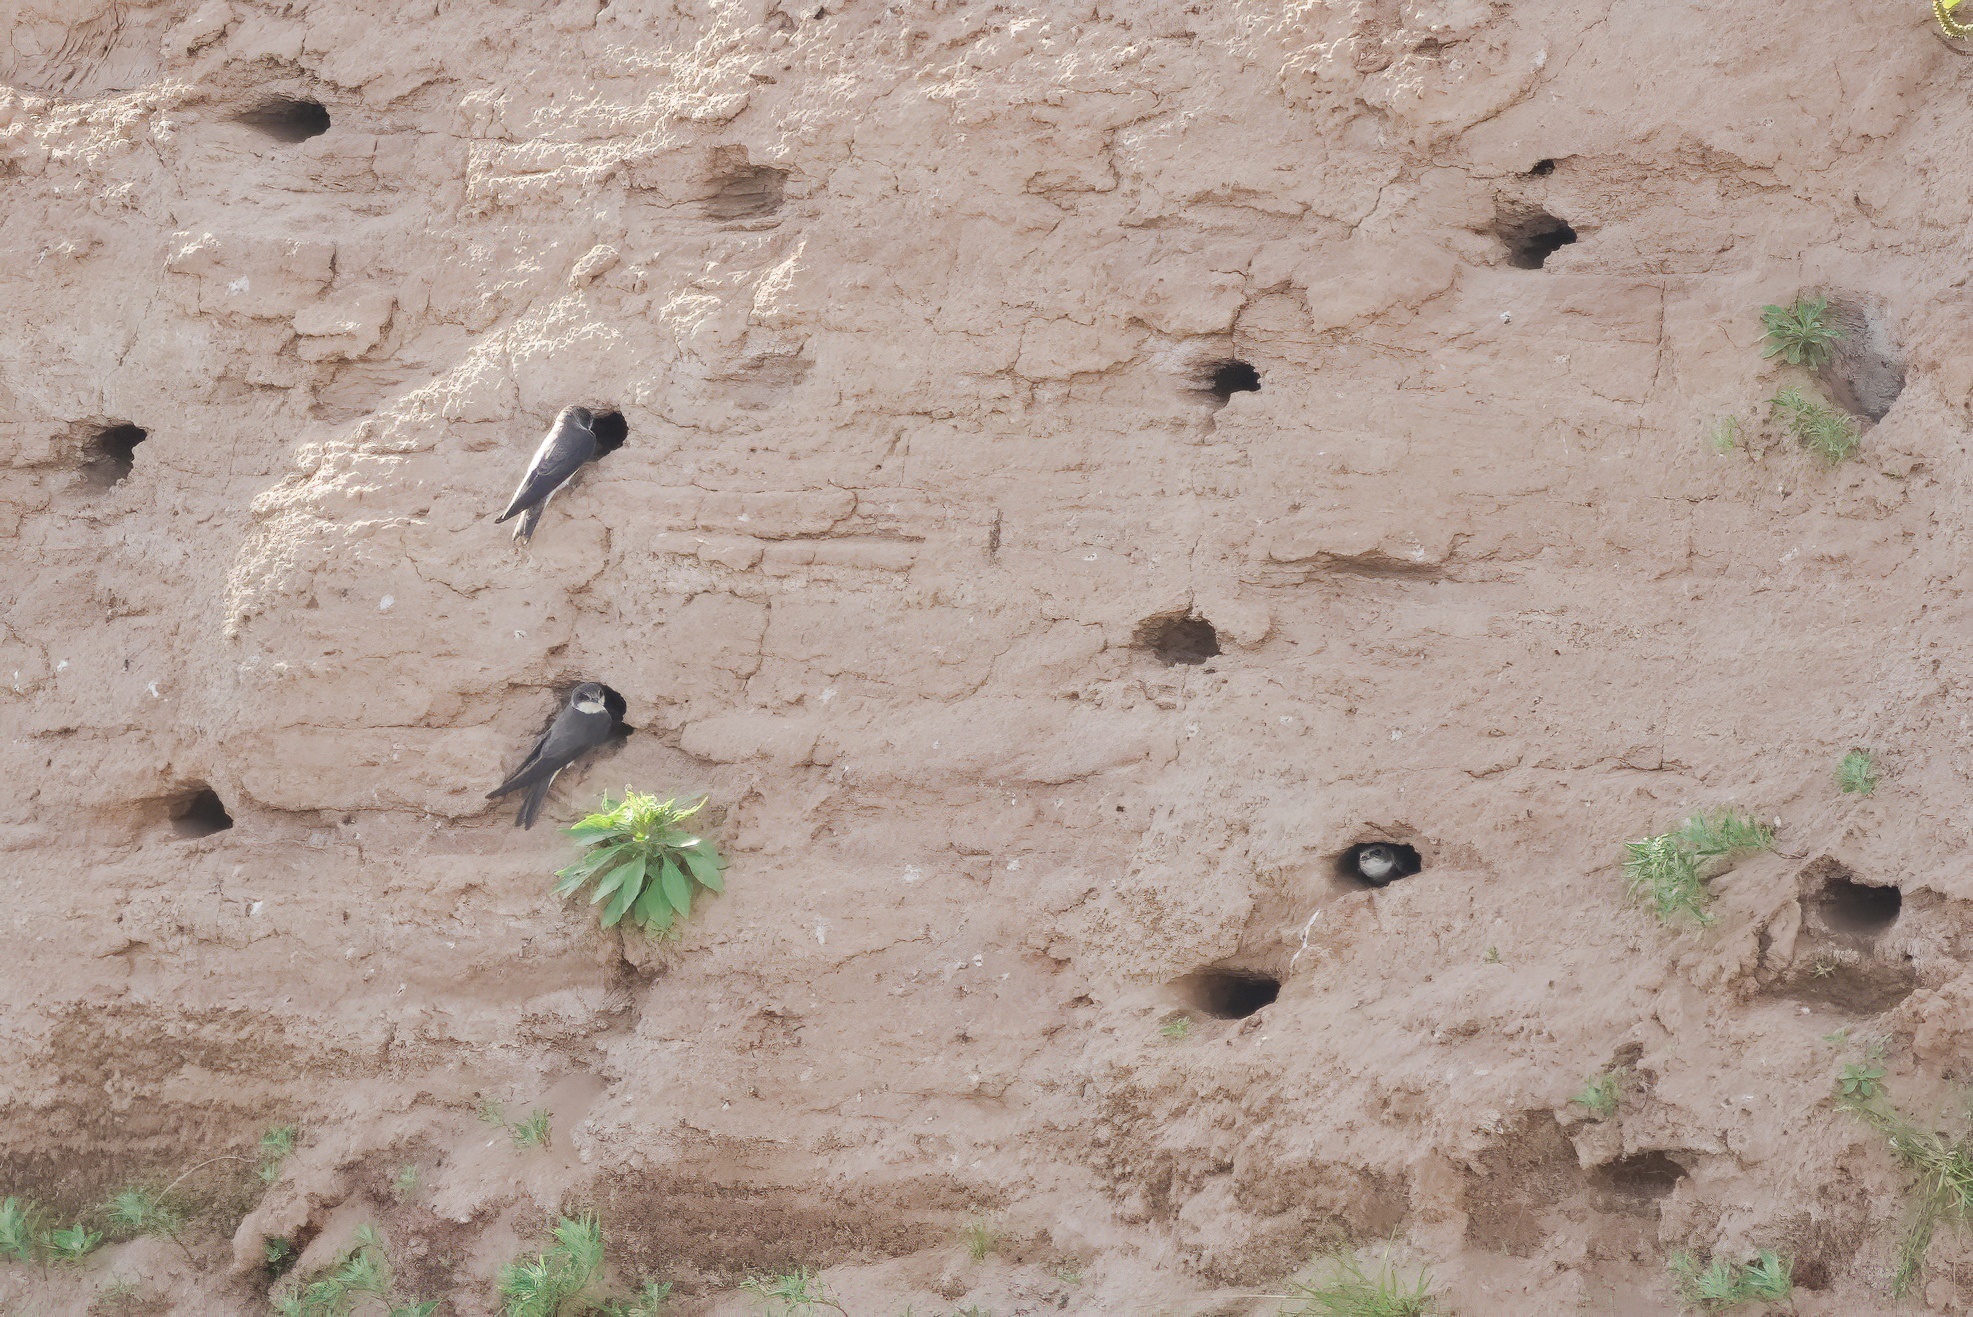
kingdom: Animalia
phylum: Chordata
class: Aves
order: Passeriformes
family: Hirundinidae
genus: Riparia
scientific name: Riparia riparia
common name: Sand martin
